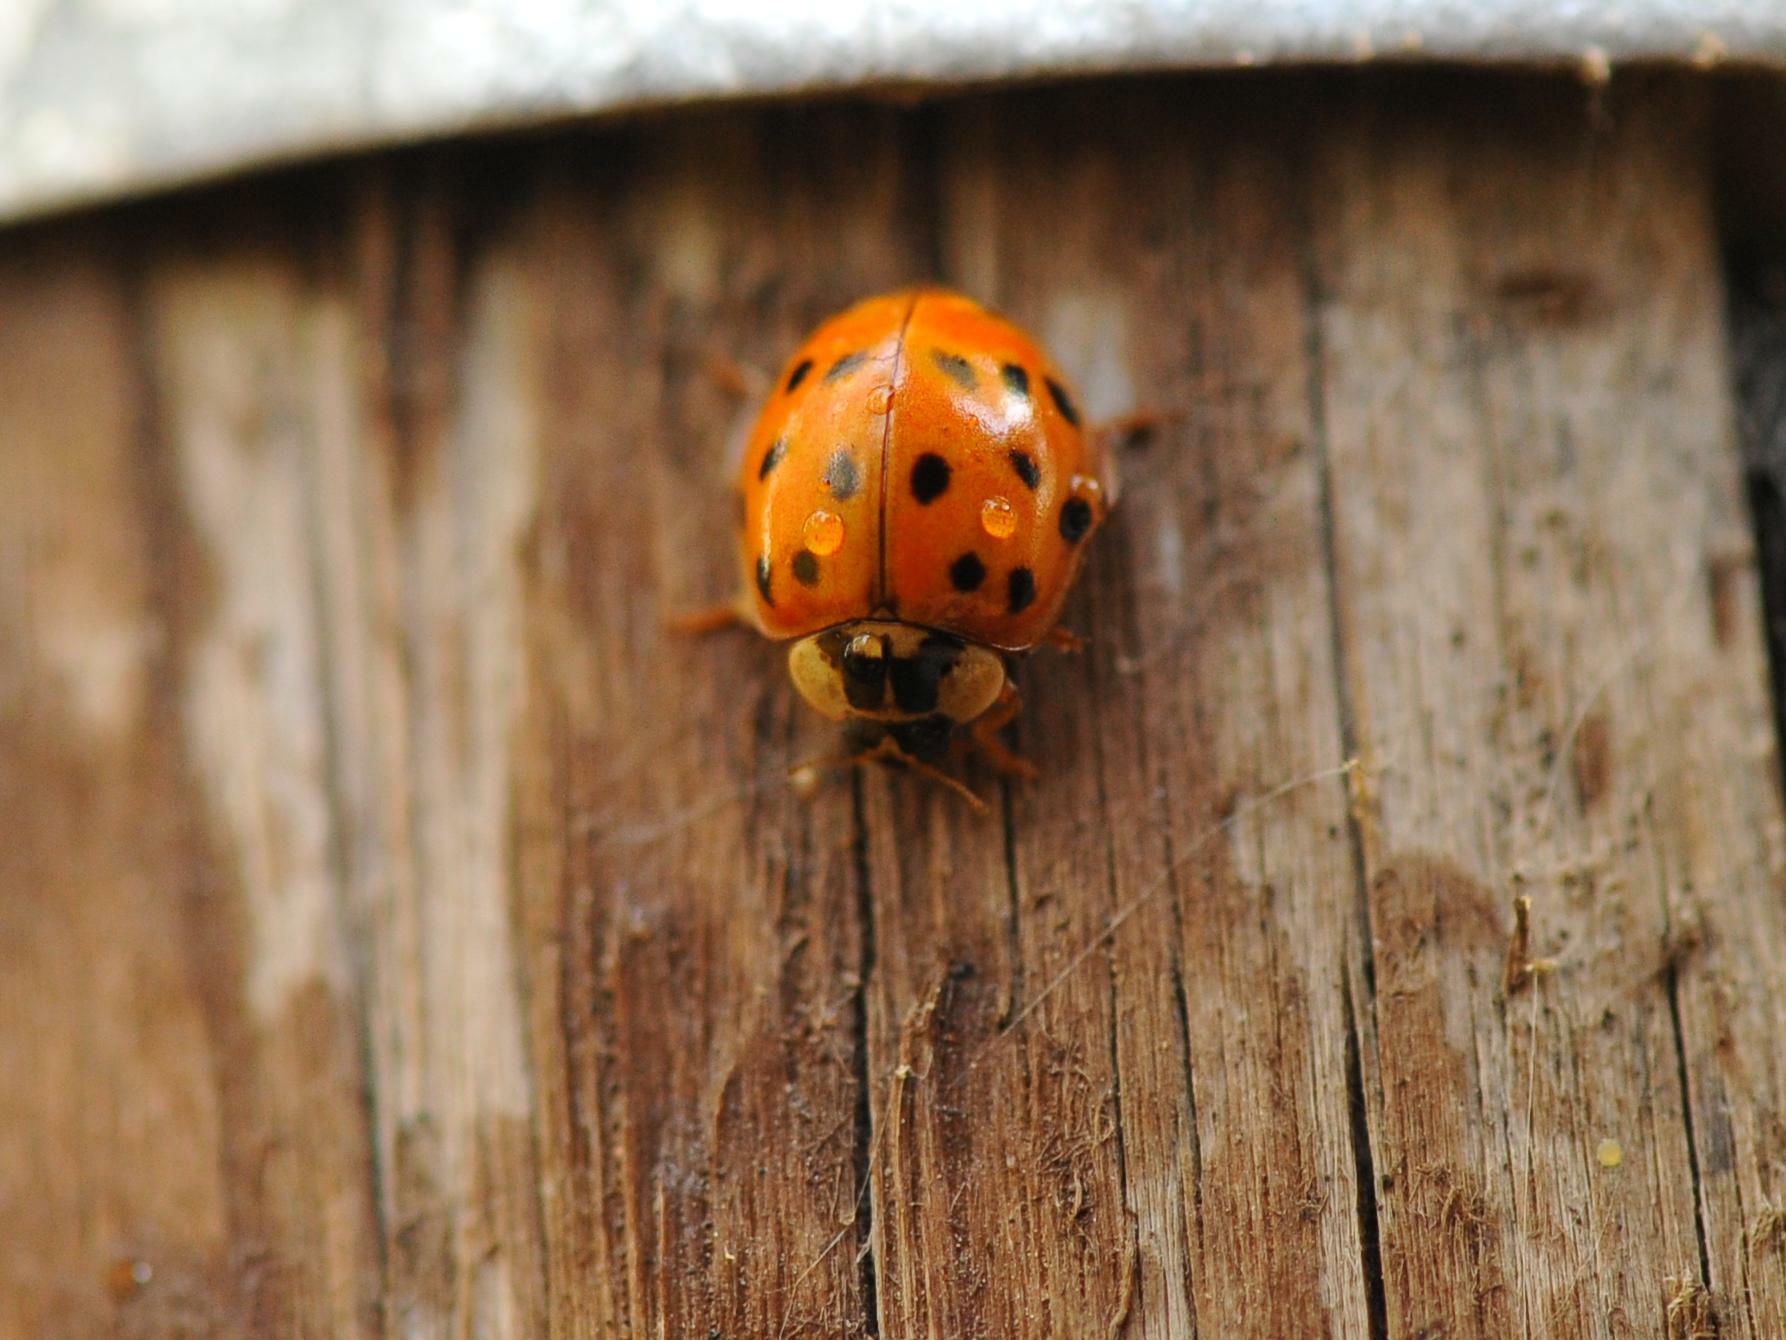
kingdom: Animalia
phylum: Arthropoda
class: Insecta
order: Coleoptera
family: Coccinellidae
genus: Harmonia
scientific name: Harmonia axyridis
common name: Harlequin ladybird
